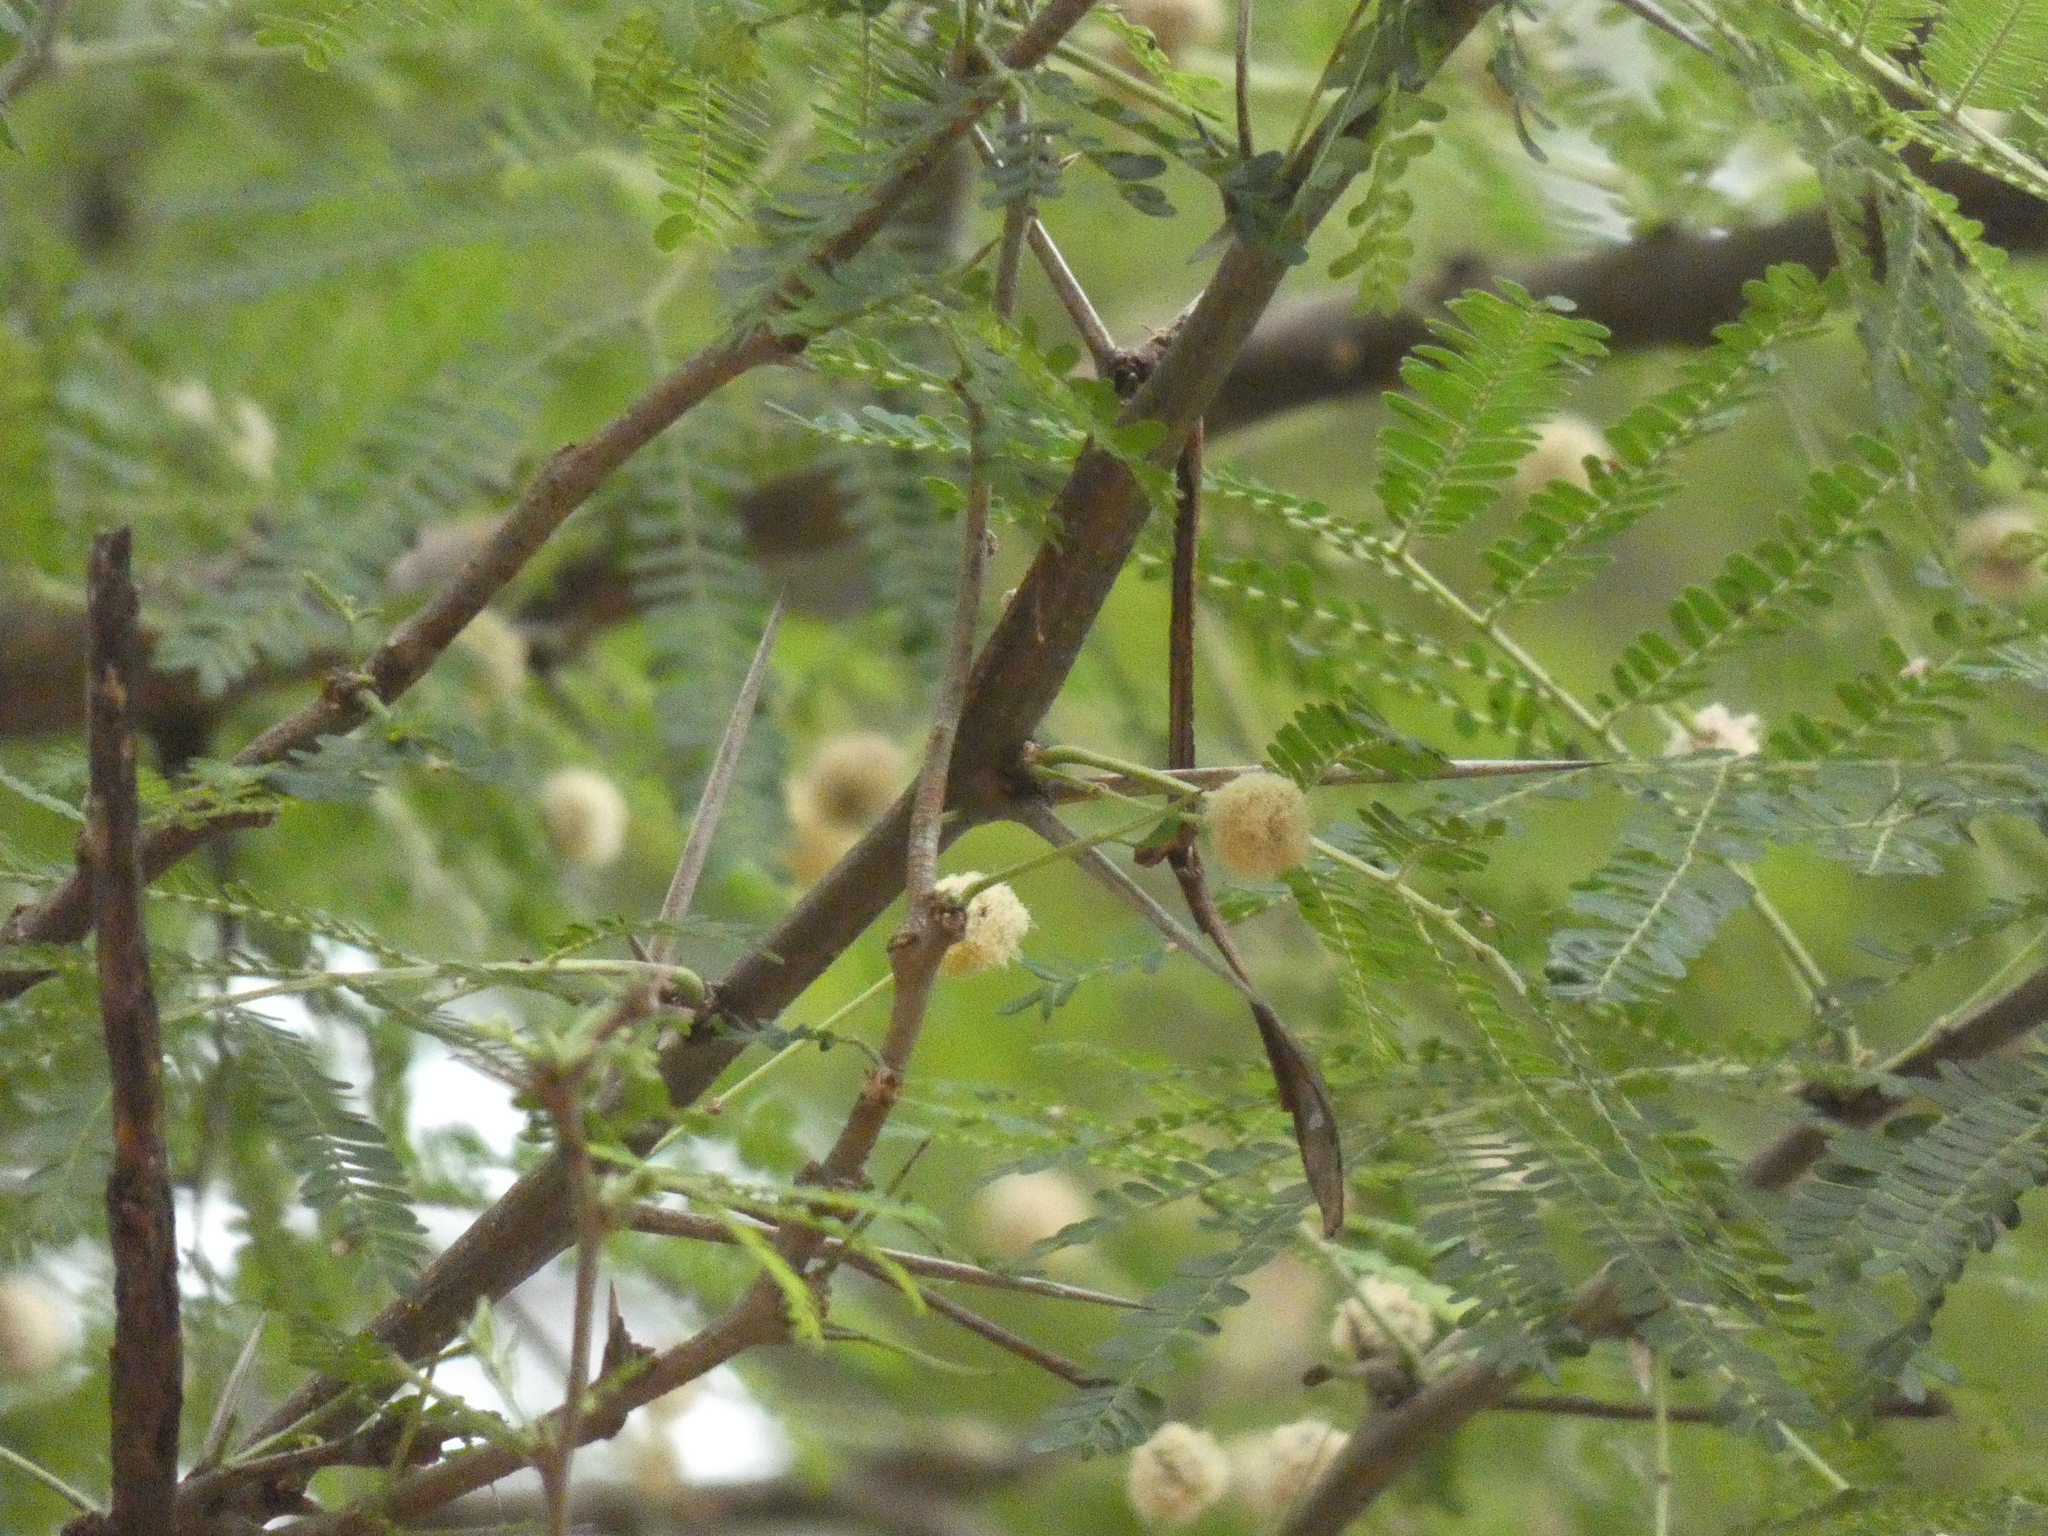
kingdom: Plantae
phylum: Tracheophyta
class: Magnoliopsida
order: Fabales
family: Fabaceae
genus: Vachellia
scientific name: Vachellia robusta
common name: Ankle thorn
